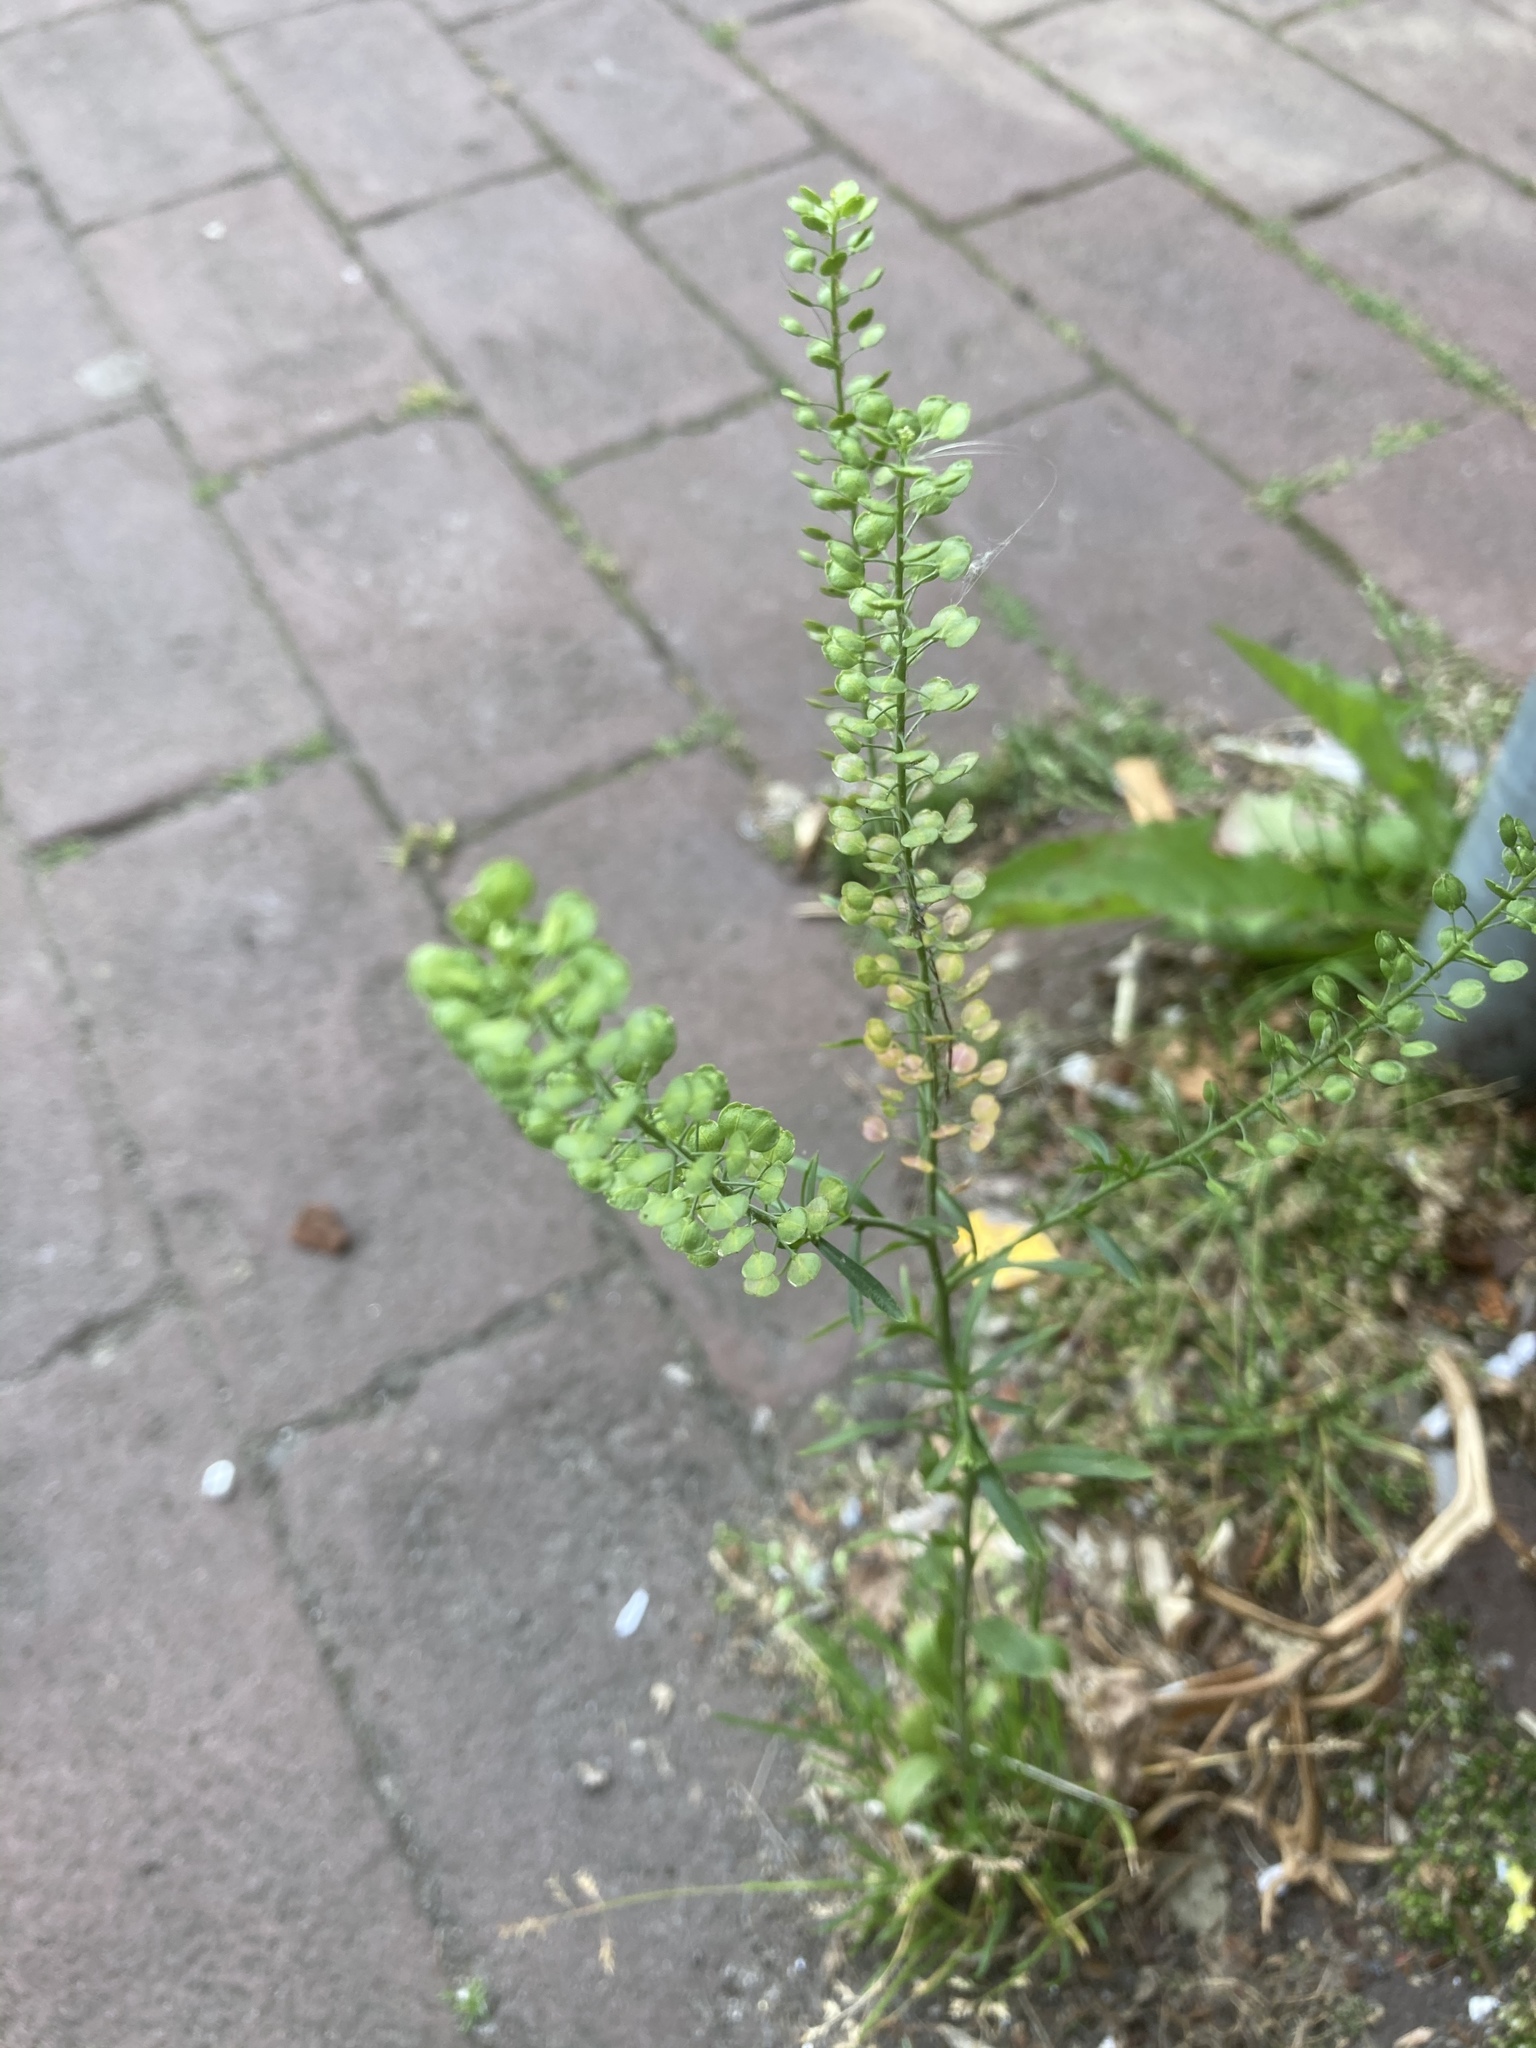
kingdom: Plantae
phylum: Tracheophyta
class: Magnoliopsida
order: Brassicales
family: Brassicaceae
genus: Lepidium
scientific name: Lepidium virginicum
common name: Least pepperwort
